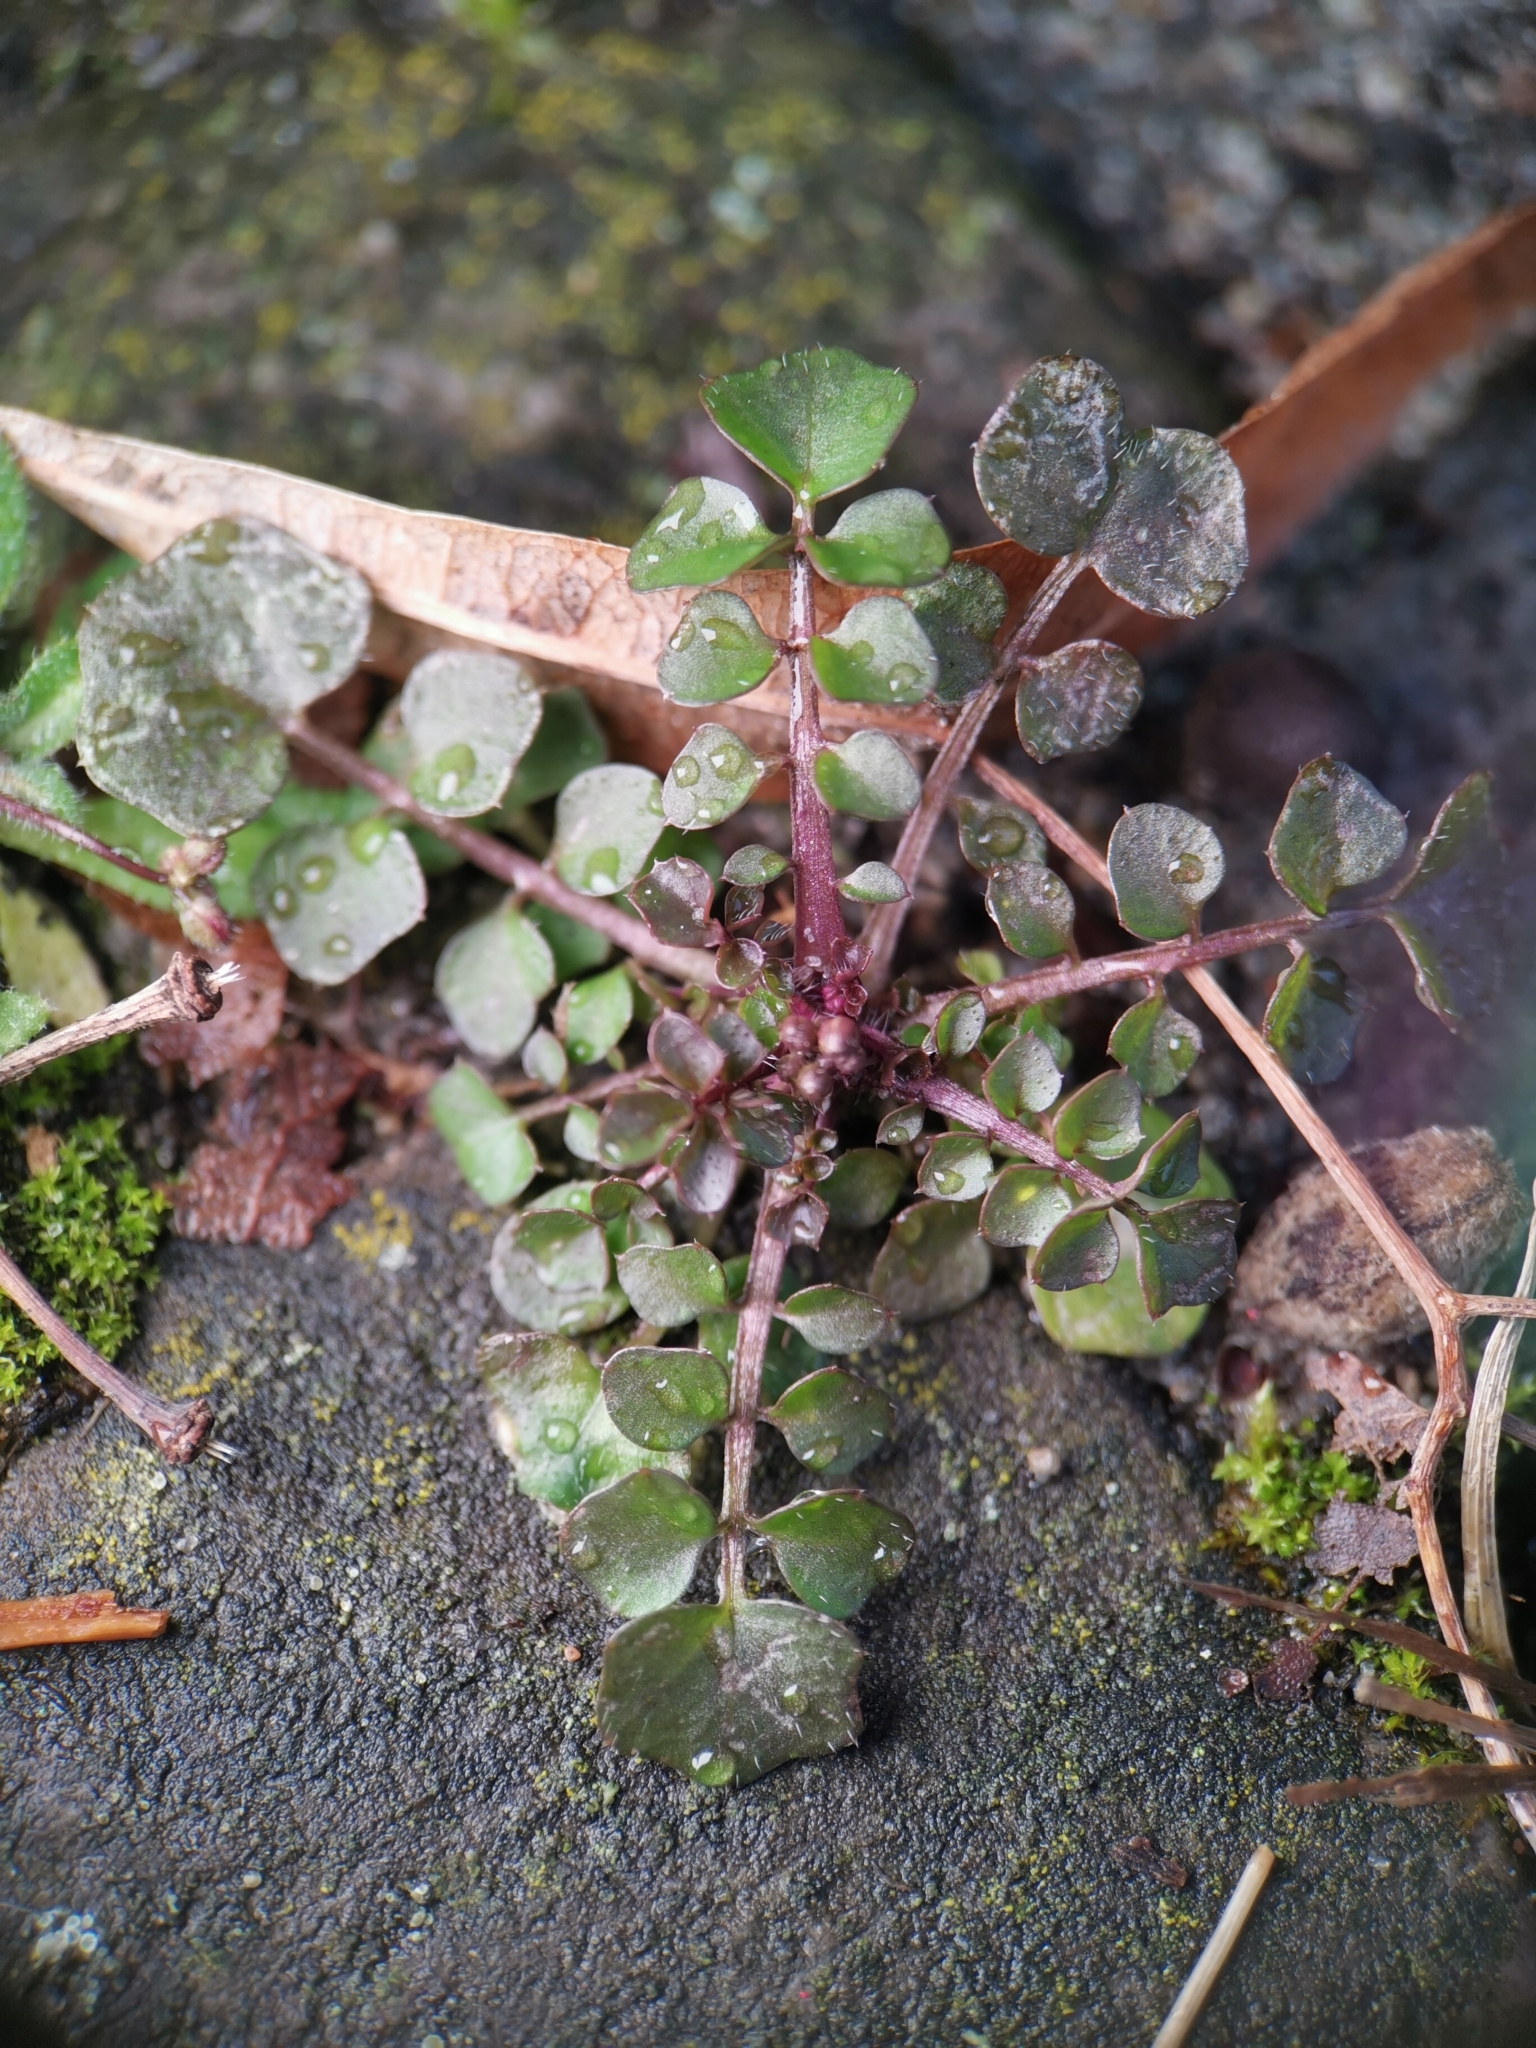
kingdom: Plantae
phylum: Tracheophyta
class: Magnoliopsida
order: Brassicales
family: Brassicaceae
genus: Cardamine
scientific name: Cardamine hirsuta
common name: Hairy bittercress
